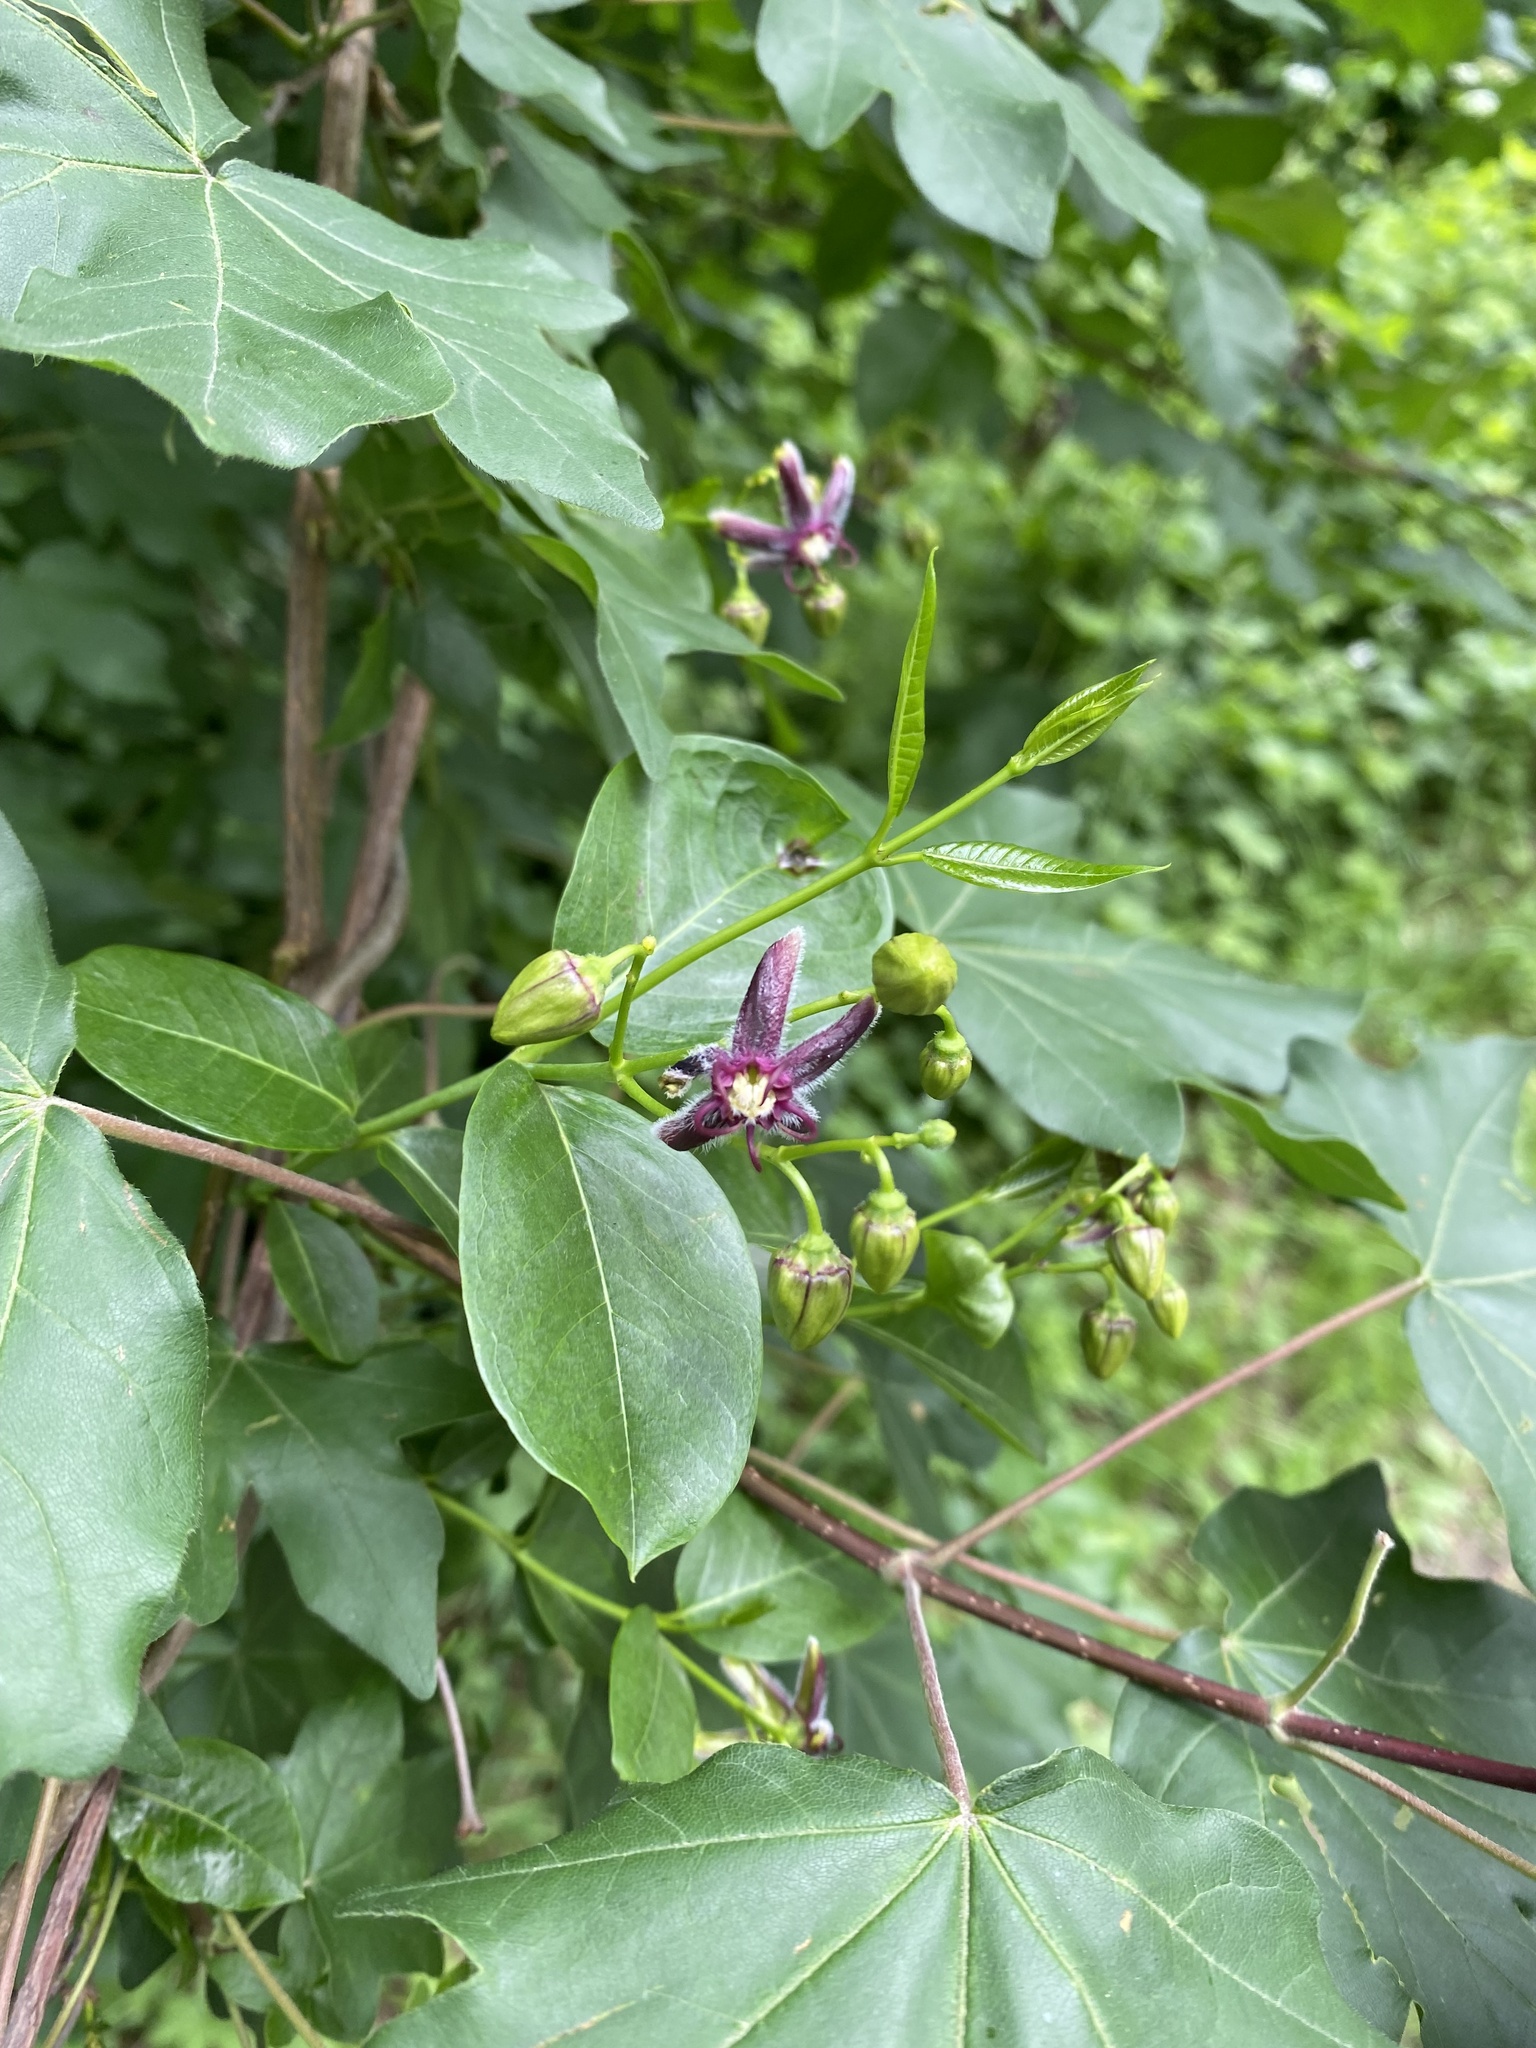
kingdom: Plantae
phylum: Tracheophyta
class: Magnoliopsida
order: Gentianales
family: Apocynaceae
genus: Periploca
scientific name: Periploca graeca
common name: Silkvine
